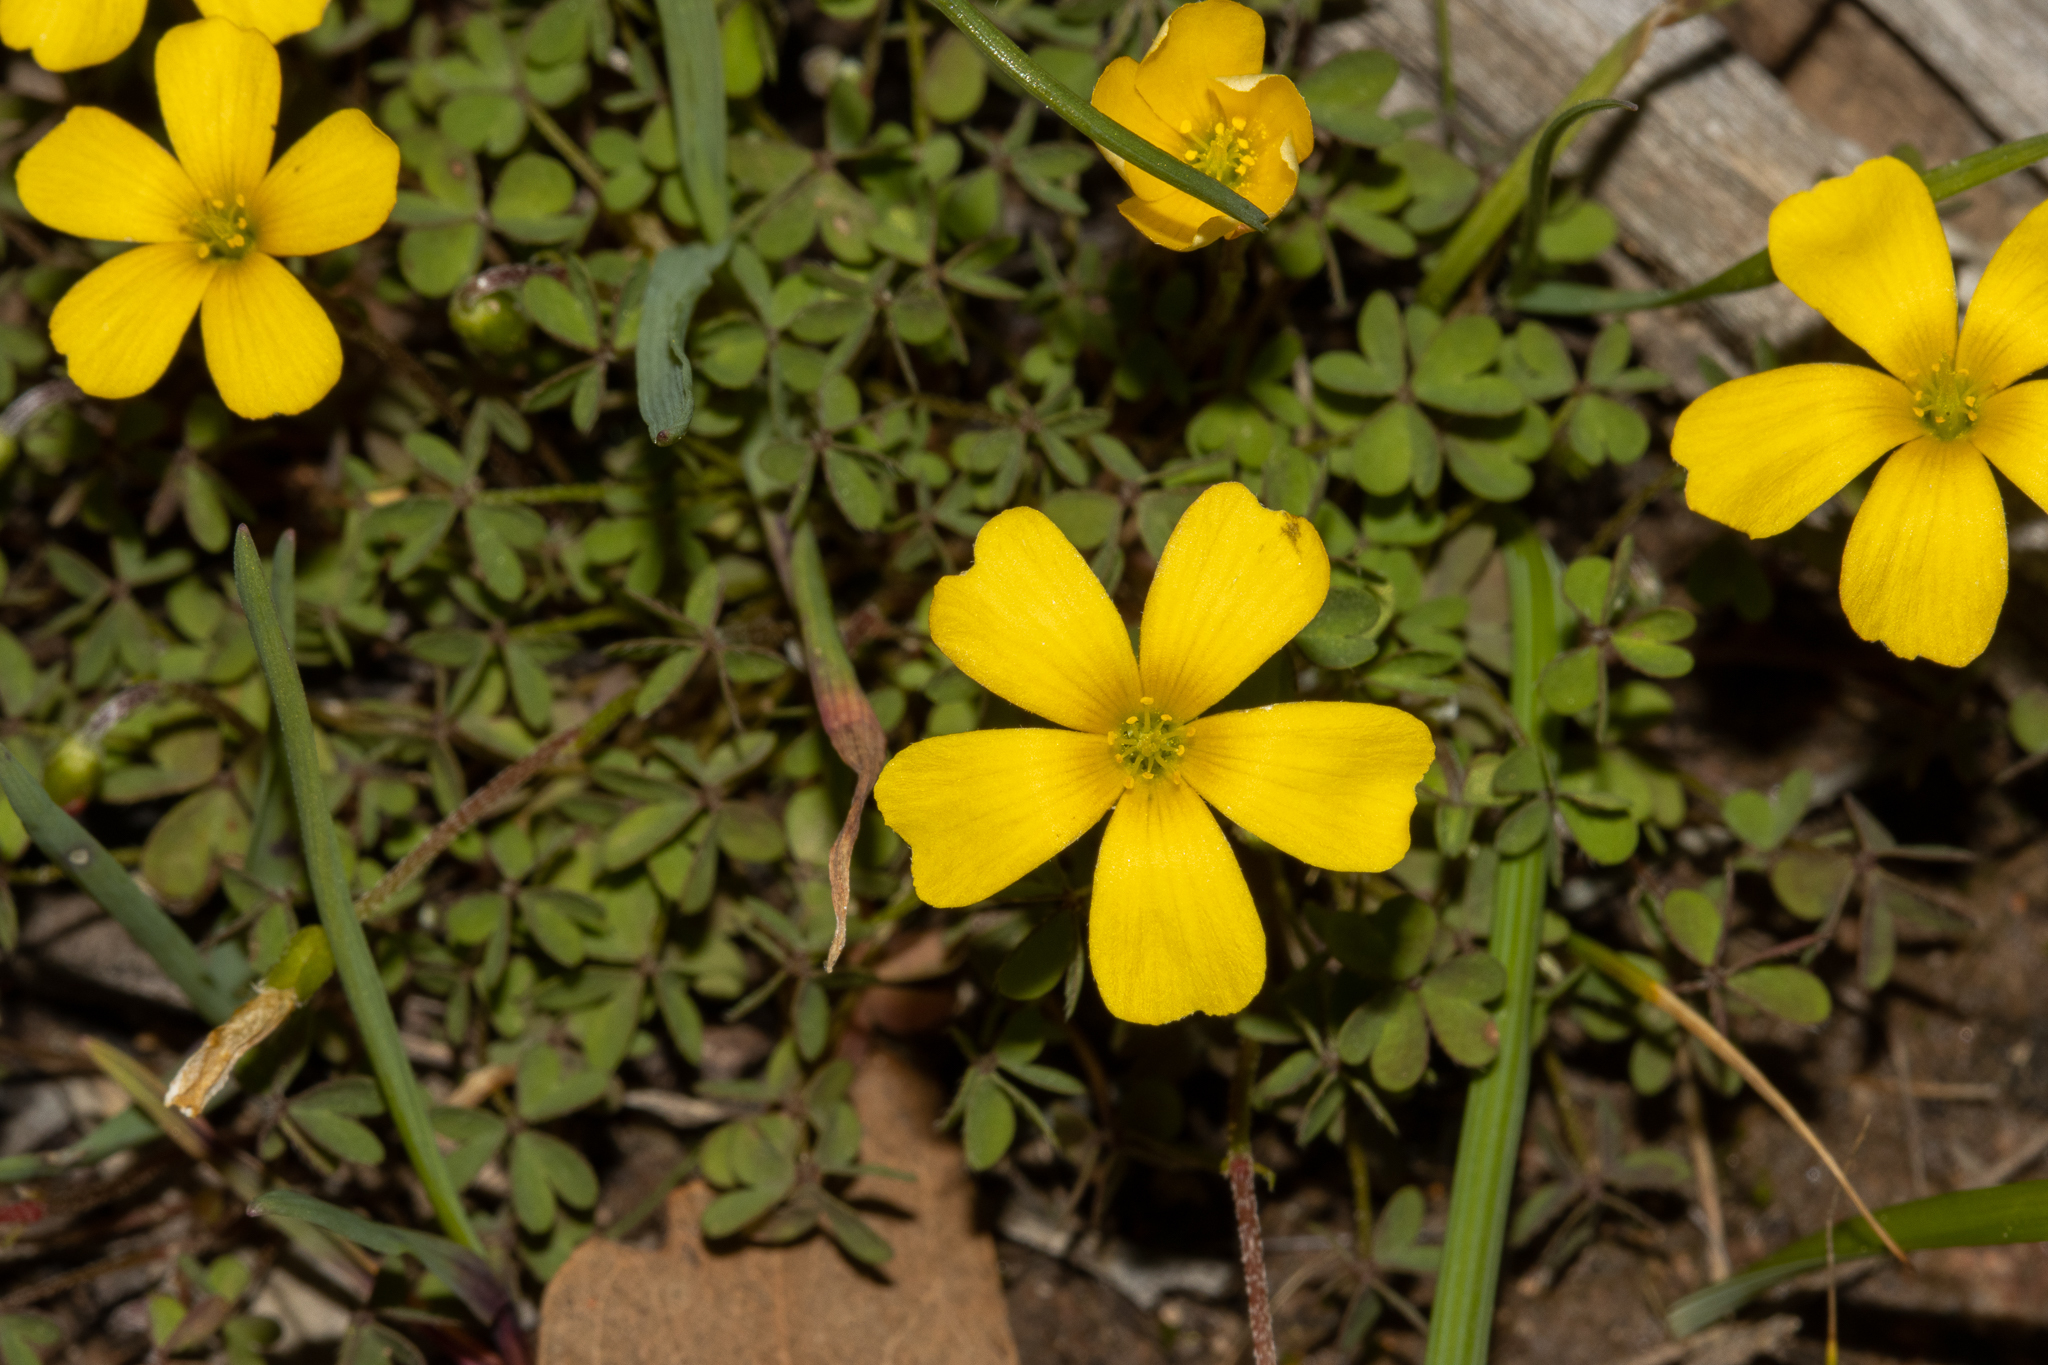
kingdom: Plantae
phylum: Tracheophyta
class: Magnoliopsida
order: Oxalidales
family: Oxalidaceae
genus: Oxalis
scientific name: Oxalis perennans
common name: Woody-rooted yellow-sorrel
